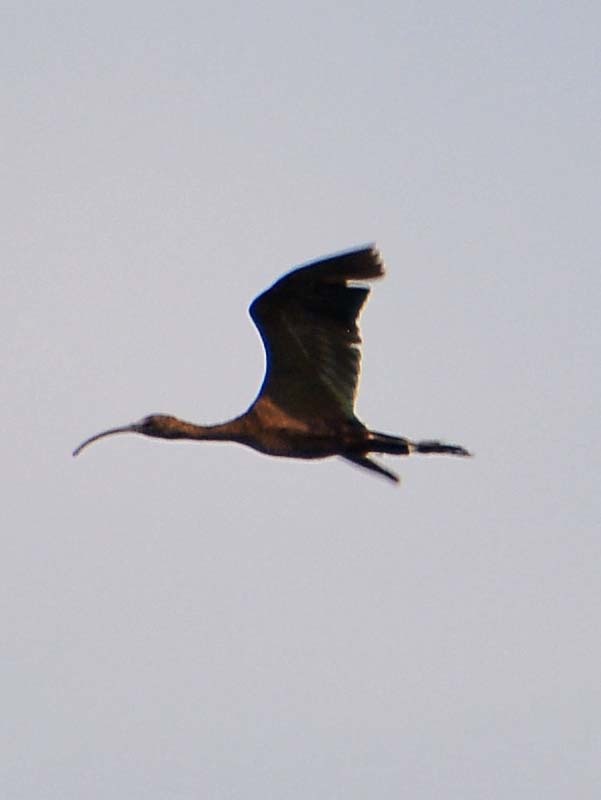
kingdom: Animalia
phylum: Chordata
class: Aves
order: Pelecaniformes
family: Threskiornithidae
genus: Plegadis
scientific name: Plegadis chihi
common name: White-faced ibis
